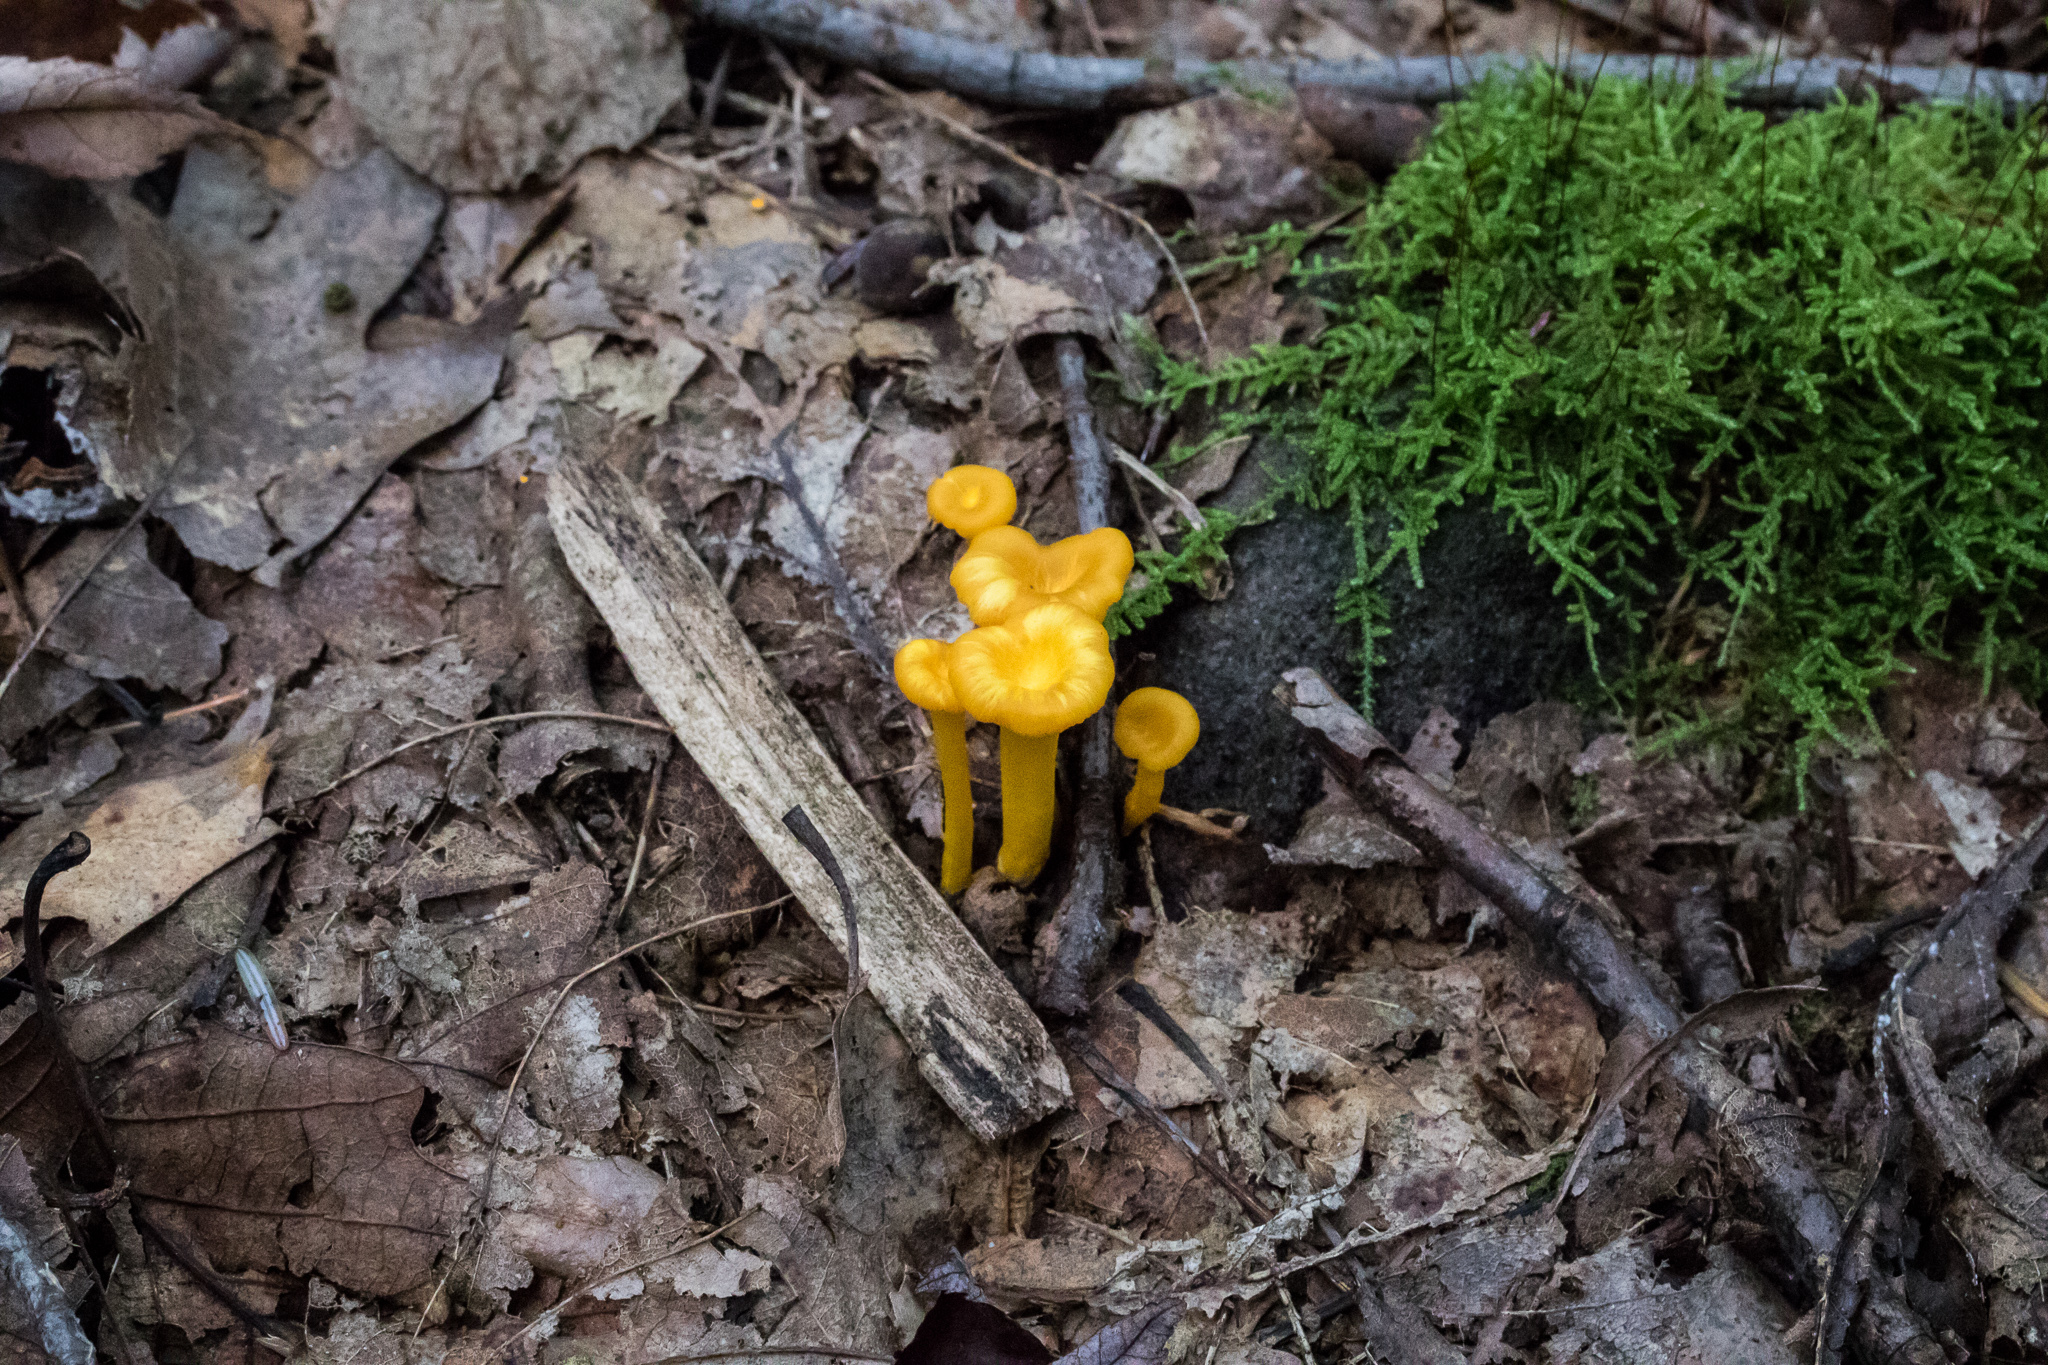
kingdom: Fungi
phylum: Basidiomycota
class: Agaricomycetes
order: Cantharellales
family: Hydnaceae
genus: Craterellus
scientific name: Craterellus ignicolor
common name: Flame chanterelle
